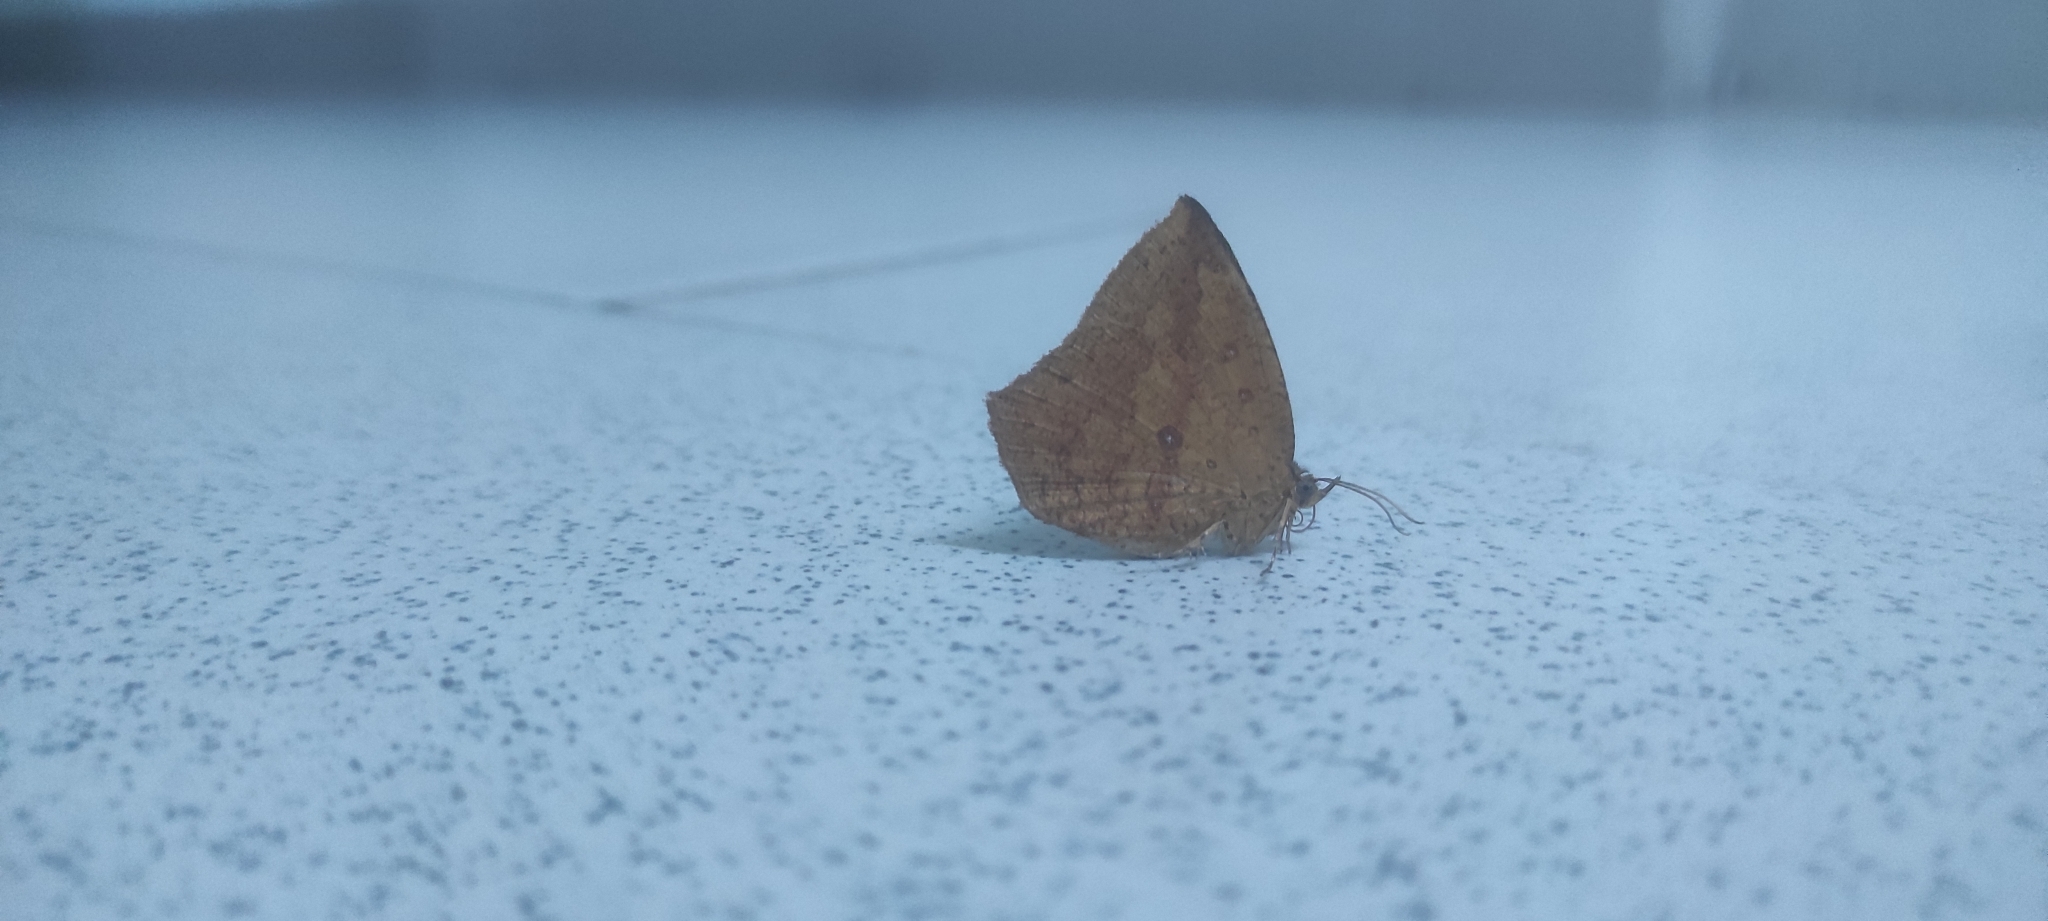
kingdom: Animalia
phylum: Arthropoda
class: Insecta
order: Lepidoptera
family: Callidulidae
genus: Tetragonus
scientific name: Tetragonus catamitus
